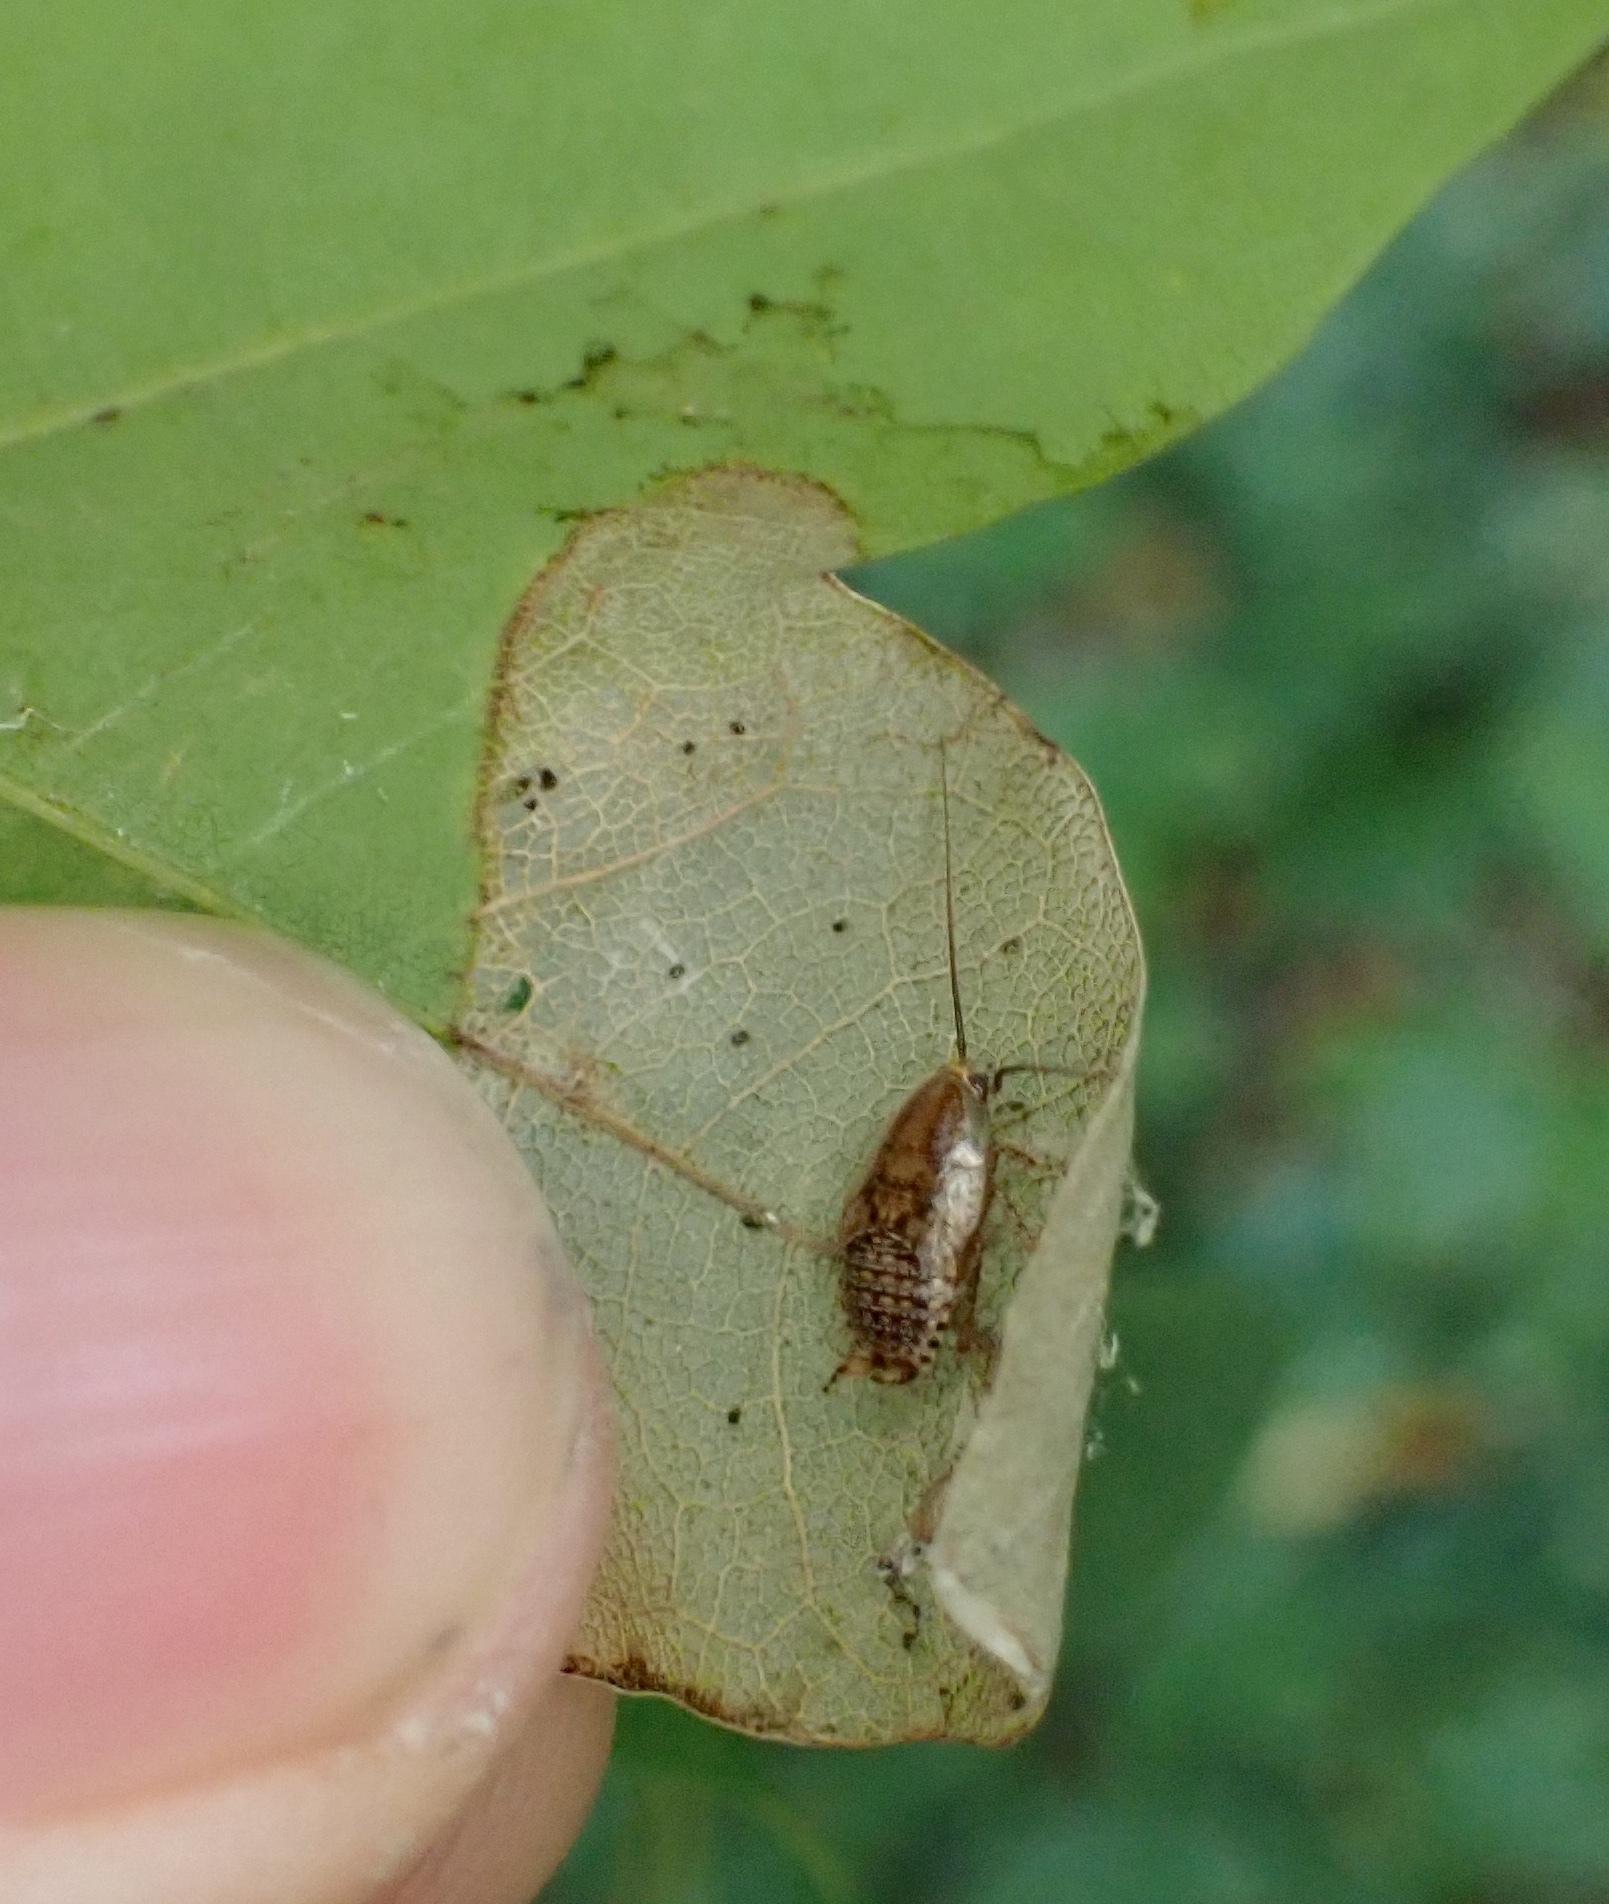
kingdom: Animalia
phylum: Arthropoda
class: Insecta
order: Blattodea
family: Ectobiidae
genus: Ectobius
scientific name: Ectobius vittiventris
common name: Garden cockroach
